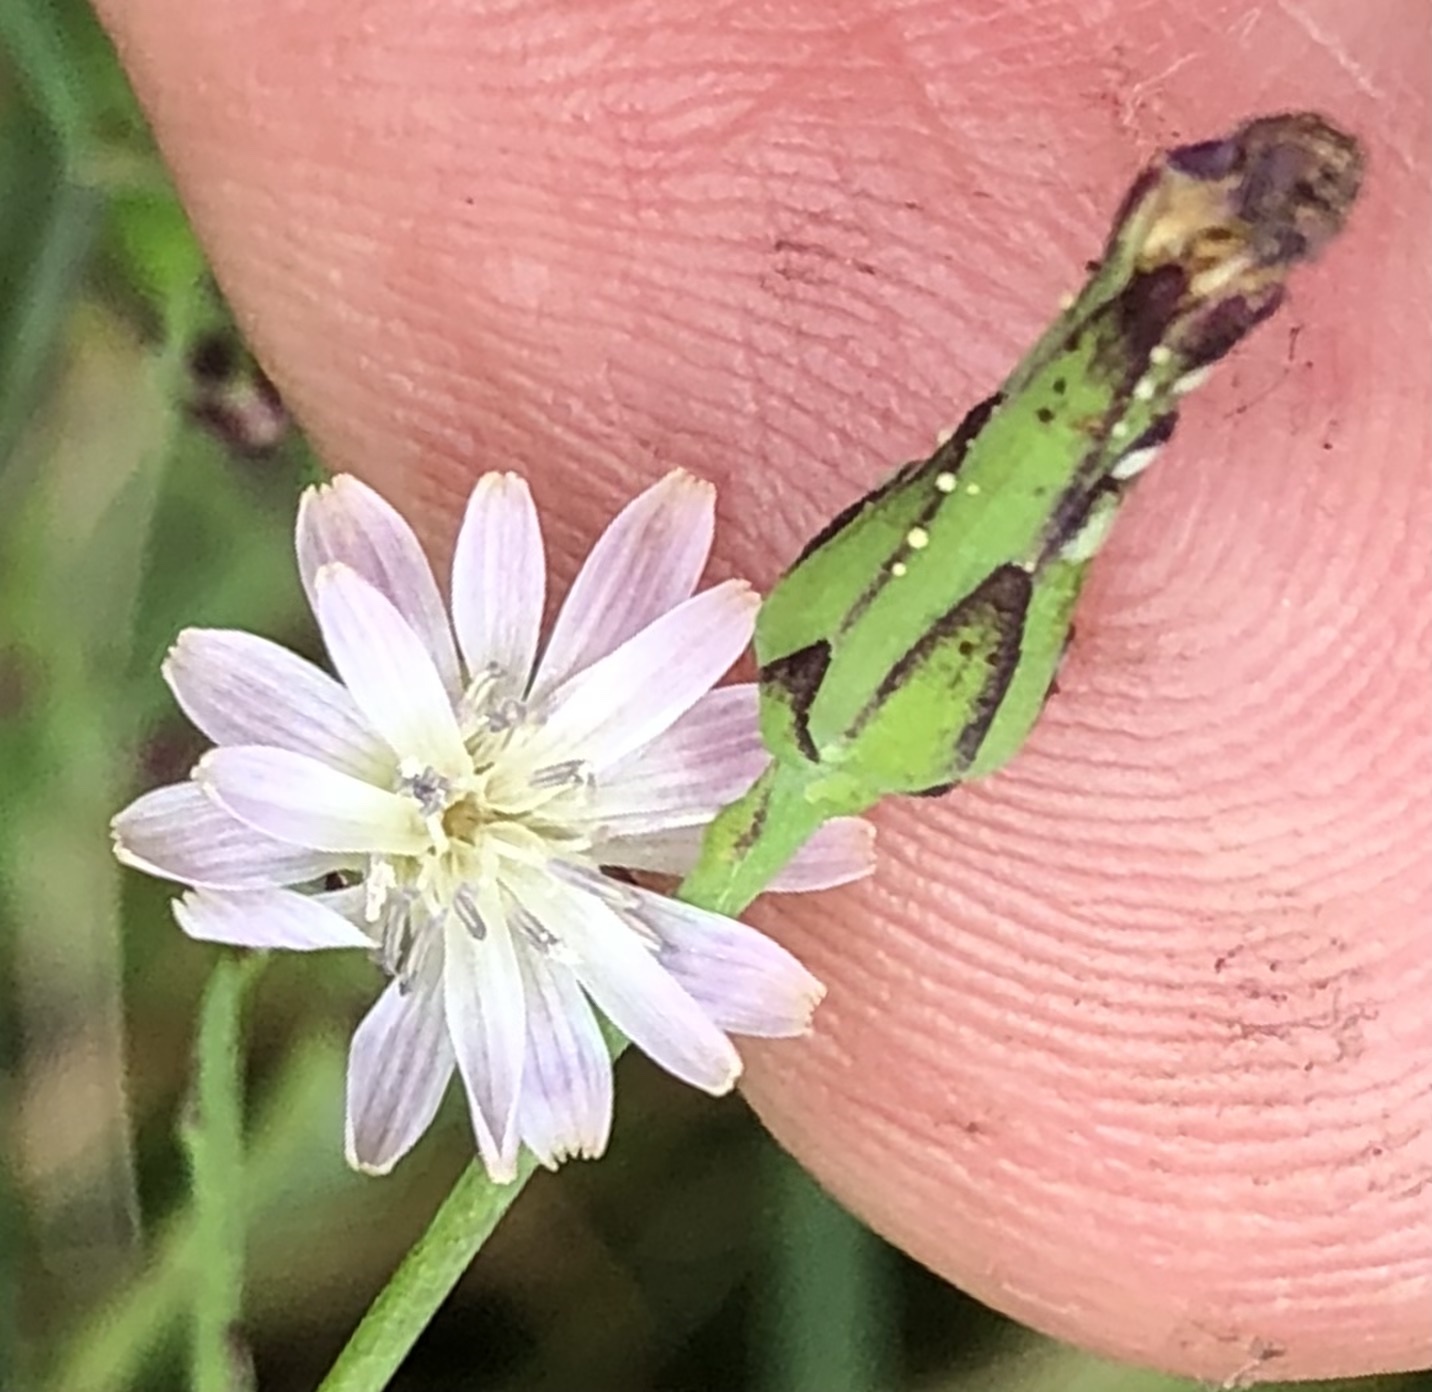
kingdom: Plantae
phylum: Tracheophyta
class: Magnoliopsida
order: Asterales
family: Asteraceae
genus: Lactuca
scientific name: Lactuca biennis
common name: Blue wood lettuce
